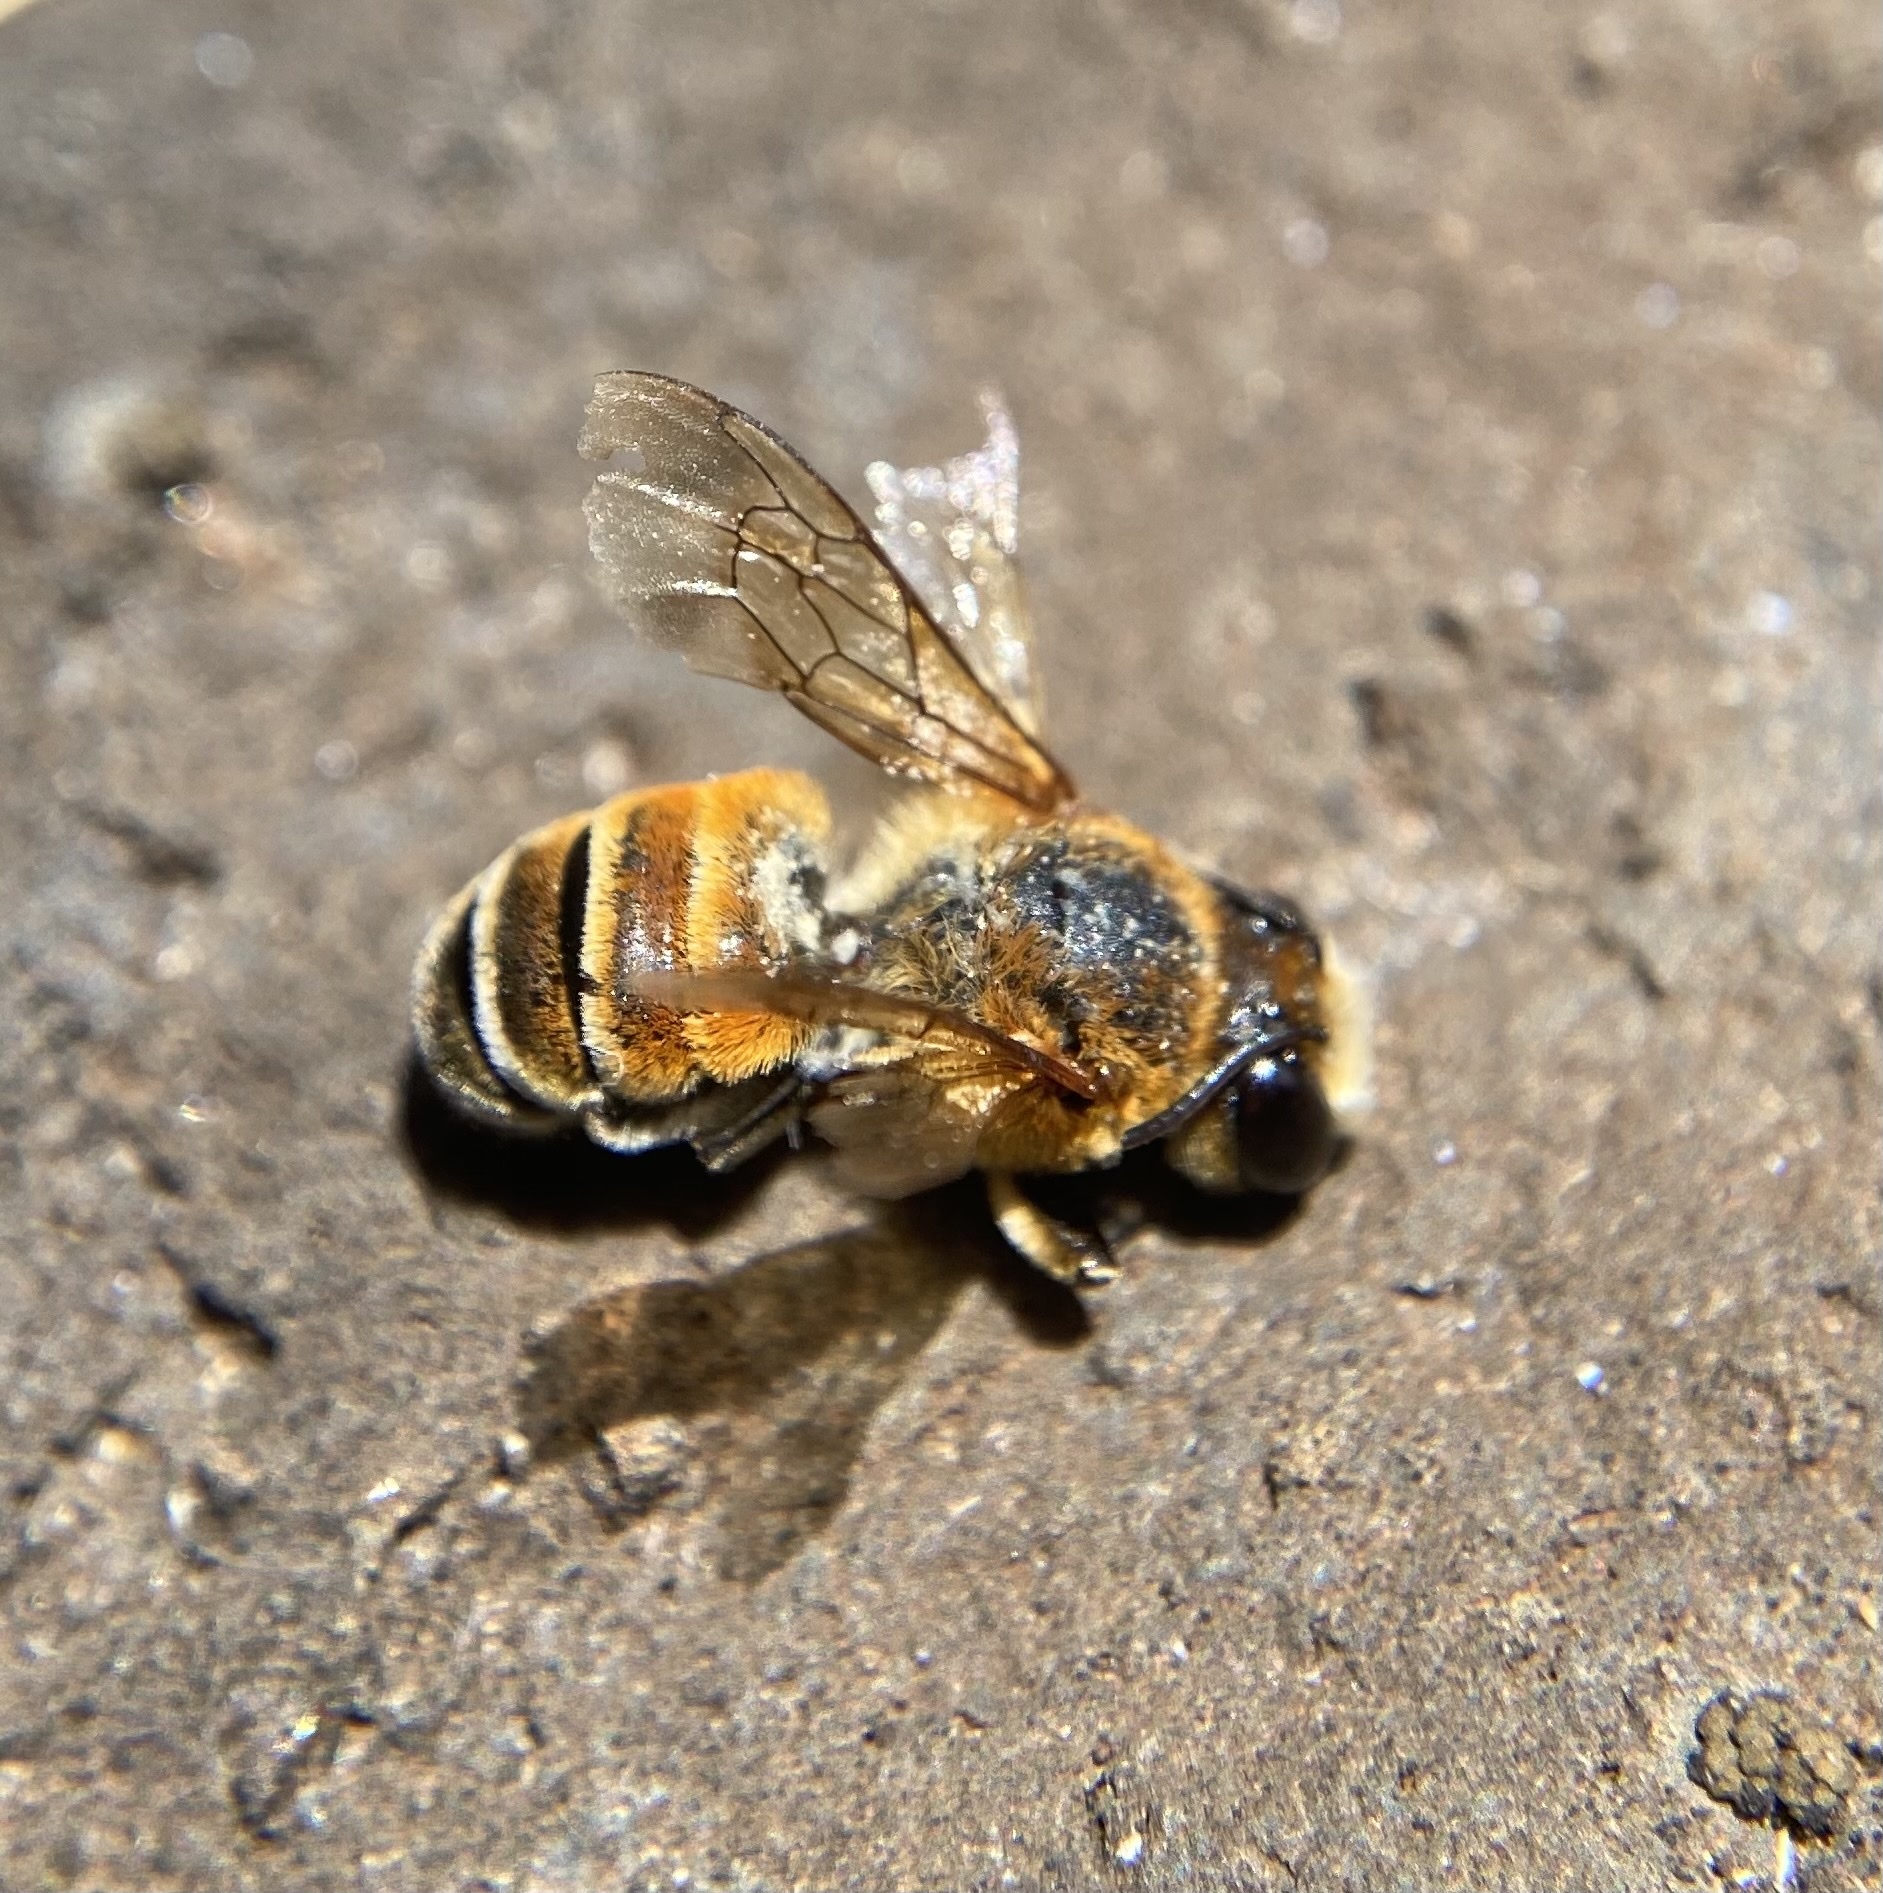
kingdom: Animalia
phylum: Arthropoda
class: Insecta
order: Hymenoptera
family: Megachilidae
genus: Megachile
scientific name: Megachile lanata
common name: Wooly wall bee
